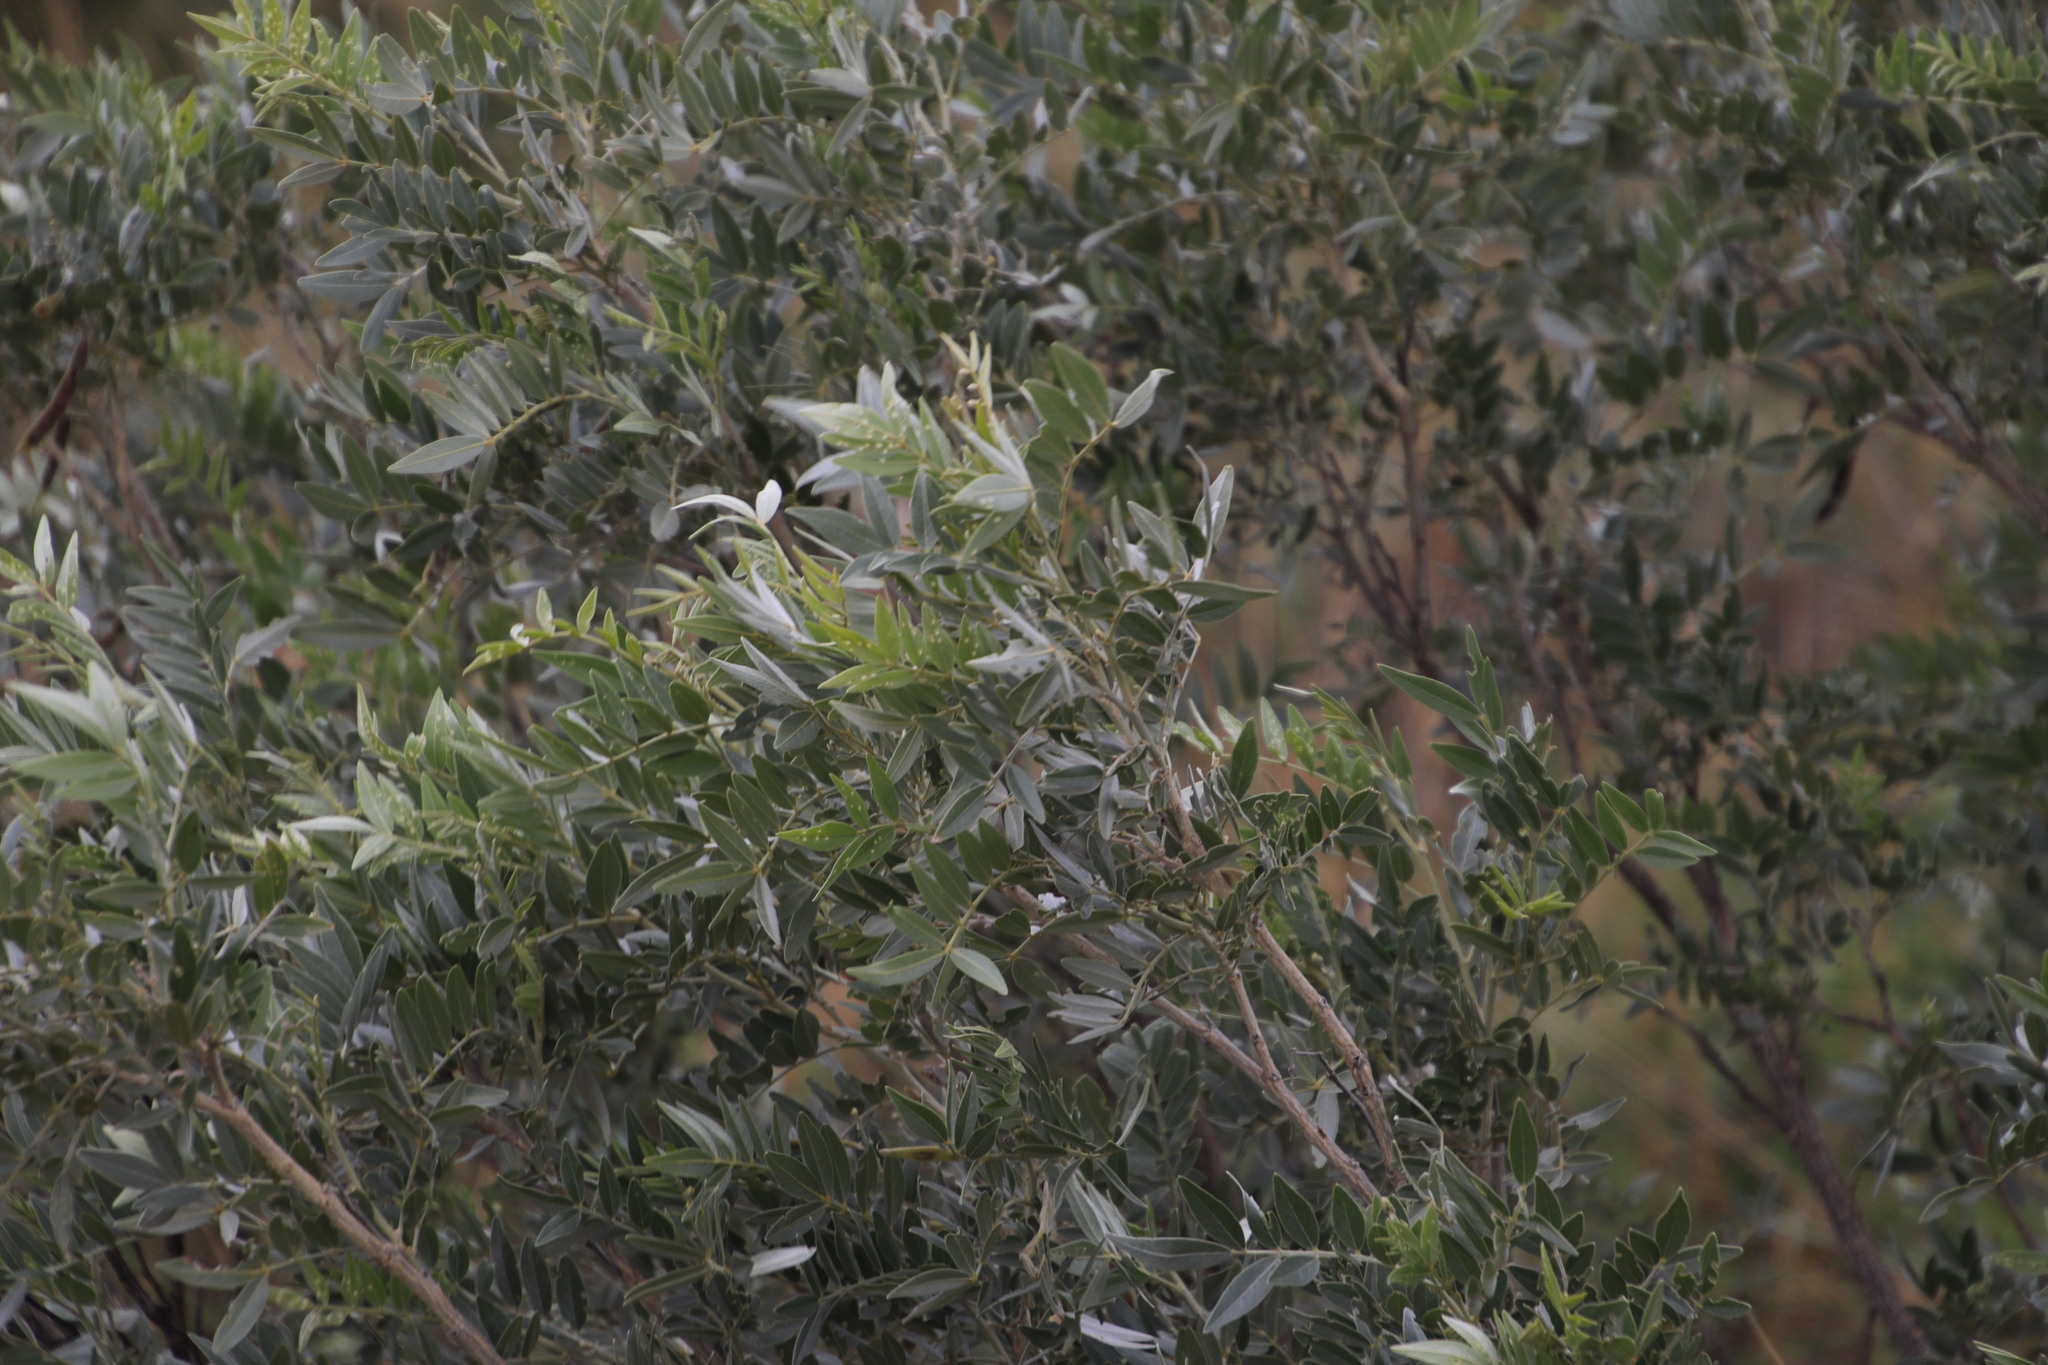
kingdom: Plantae
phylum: Tracheophyta
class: Magnoliopsida
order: Fabales
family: Fabaceae
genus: Mundulea
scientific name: Mundulea sericea
